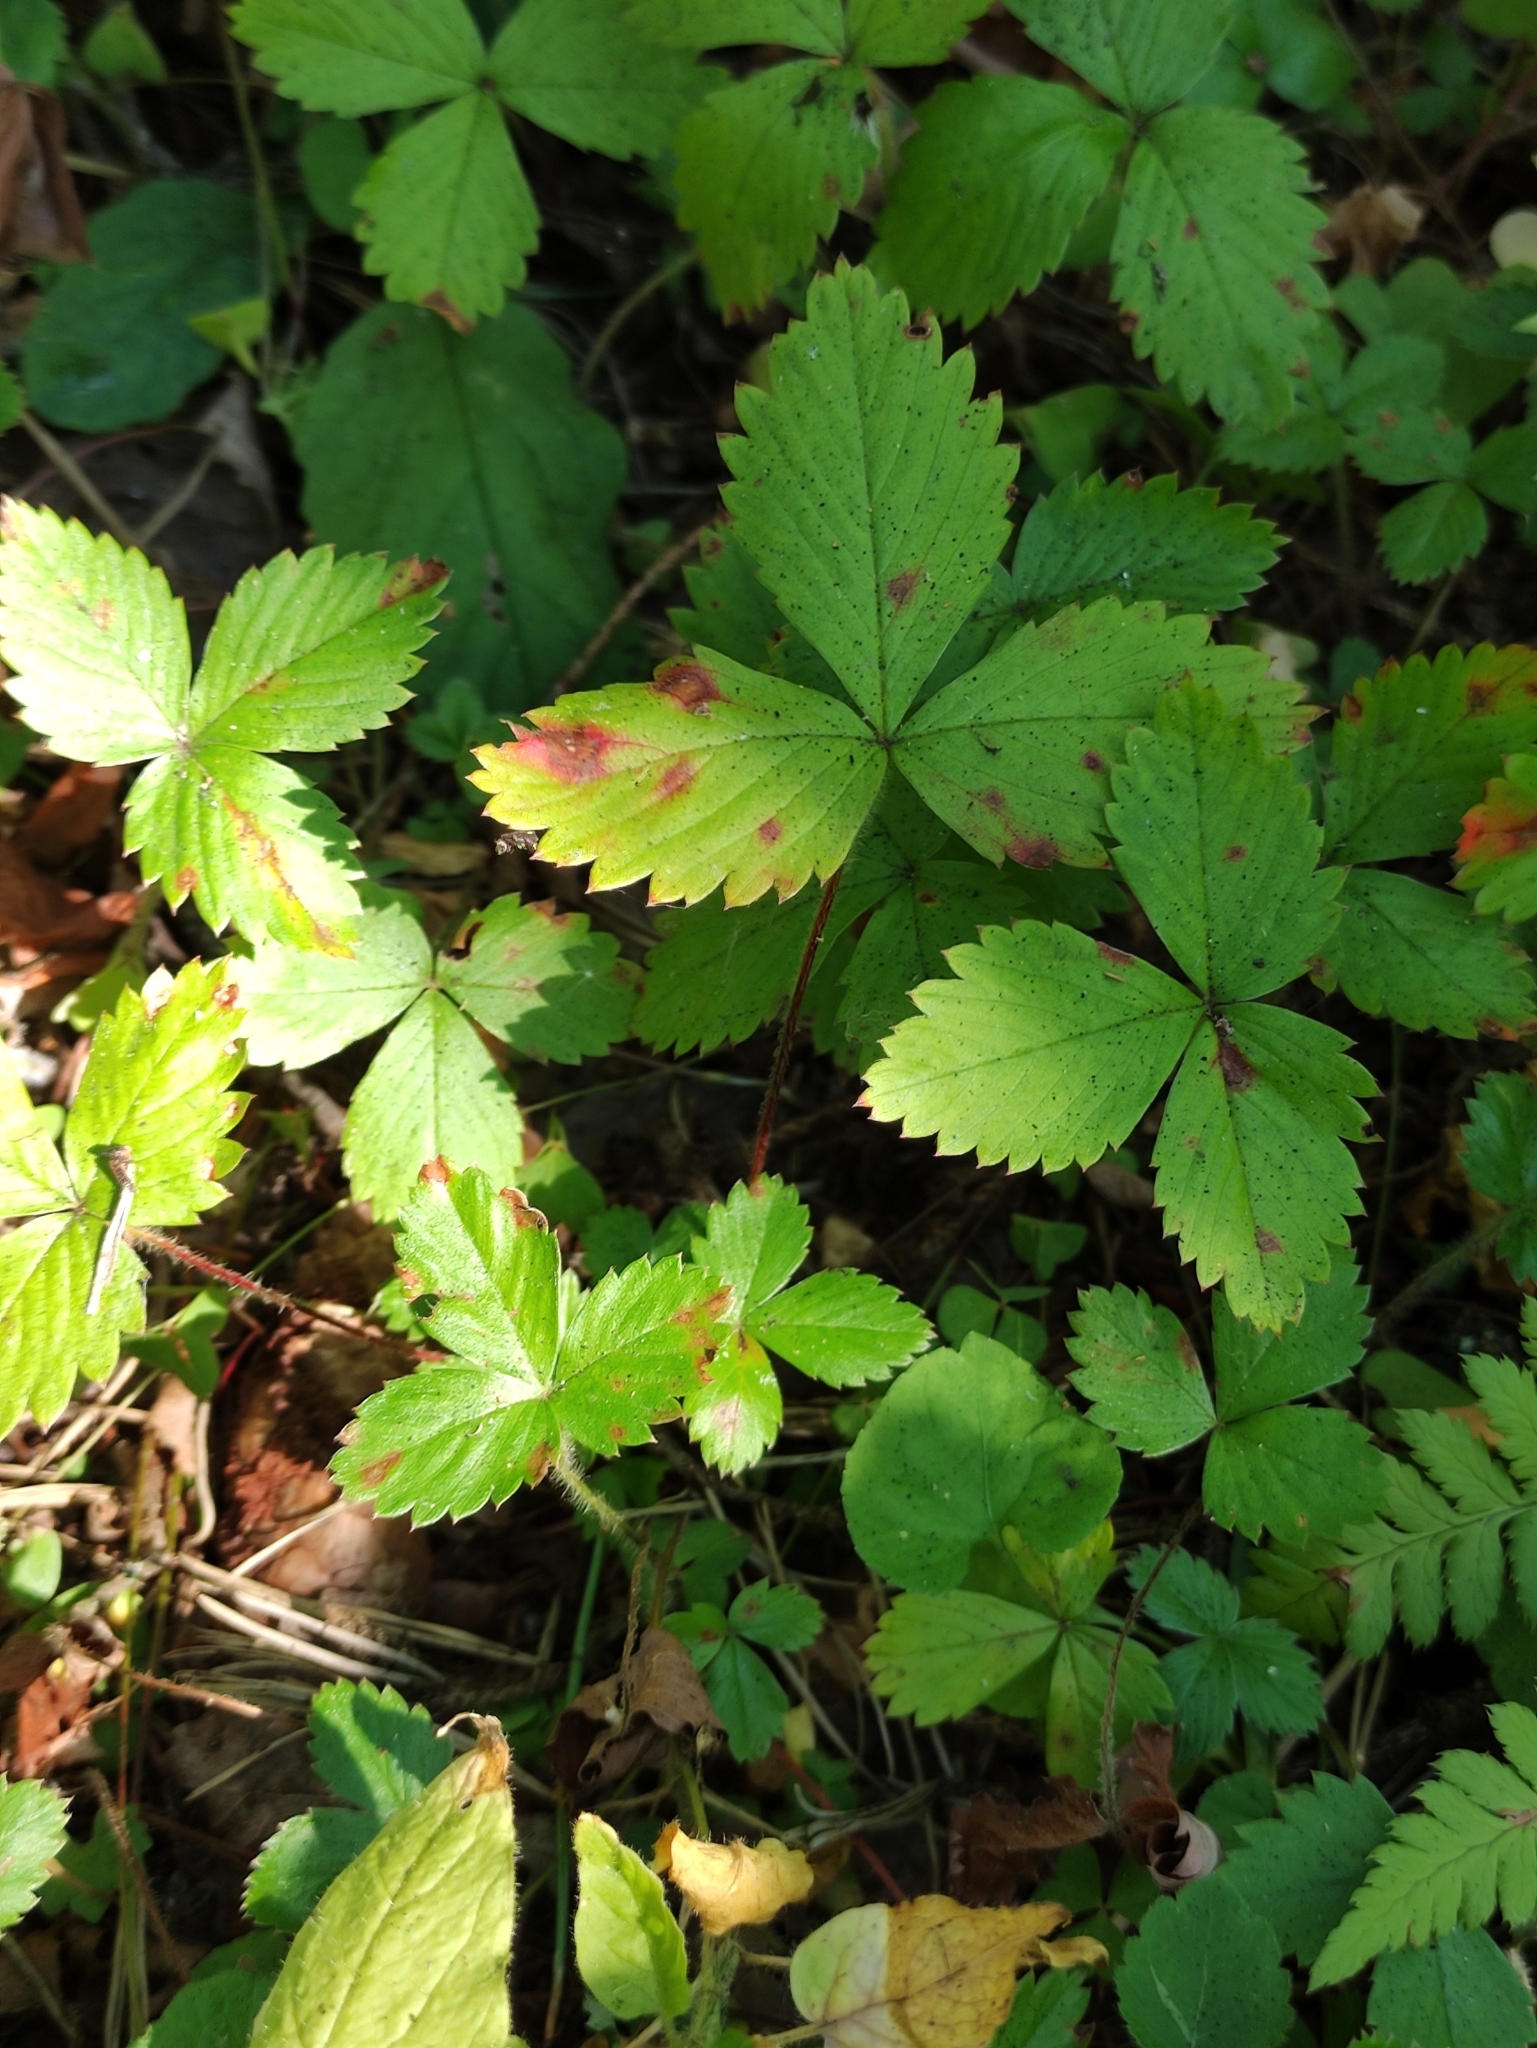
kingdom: Plantae
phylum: Tracheophyta
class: Magnoliopsida
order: Rosales
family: Rosaceae
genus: Fragaria
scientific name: Fragaria vesca
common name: Wild strawberry
